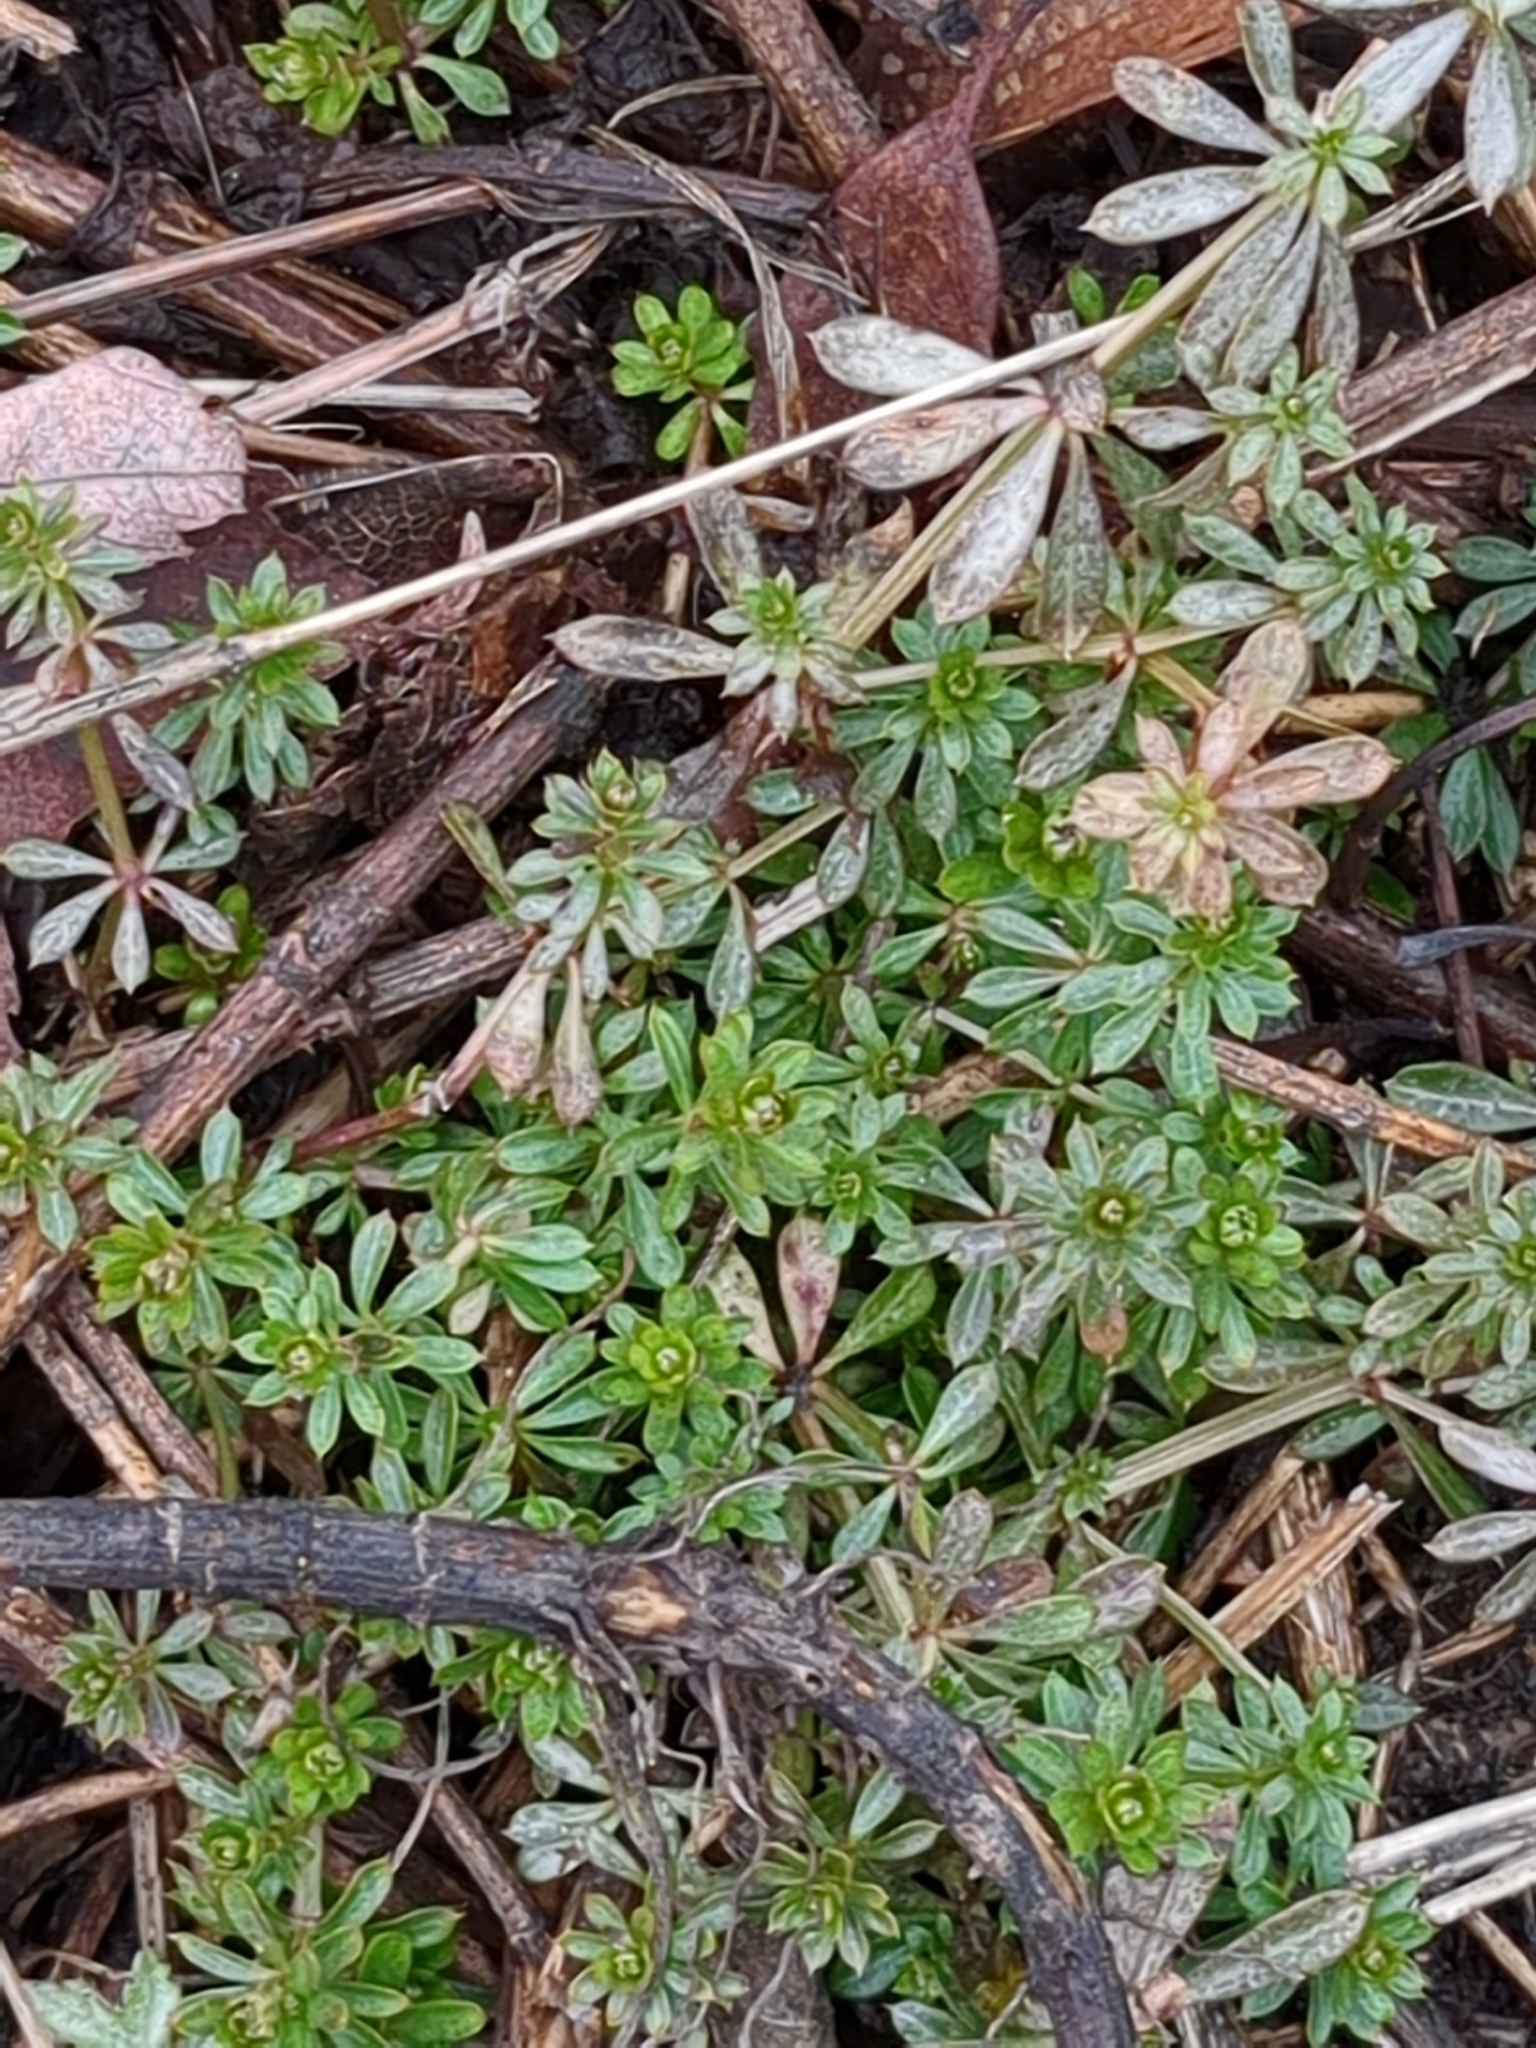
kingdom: Plantae
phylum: Tracheophyta
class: Magnoliopsida
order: Gentianales
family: Rubiaceae
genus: Galium
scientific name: Galium mollugo
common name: Hedge bedstraw
